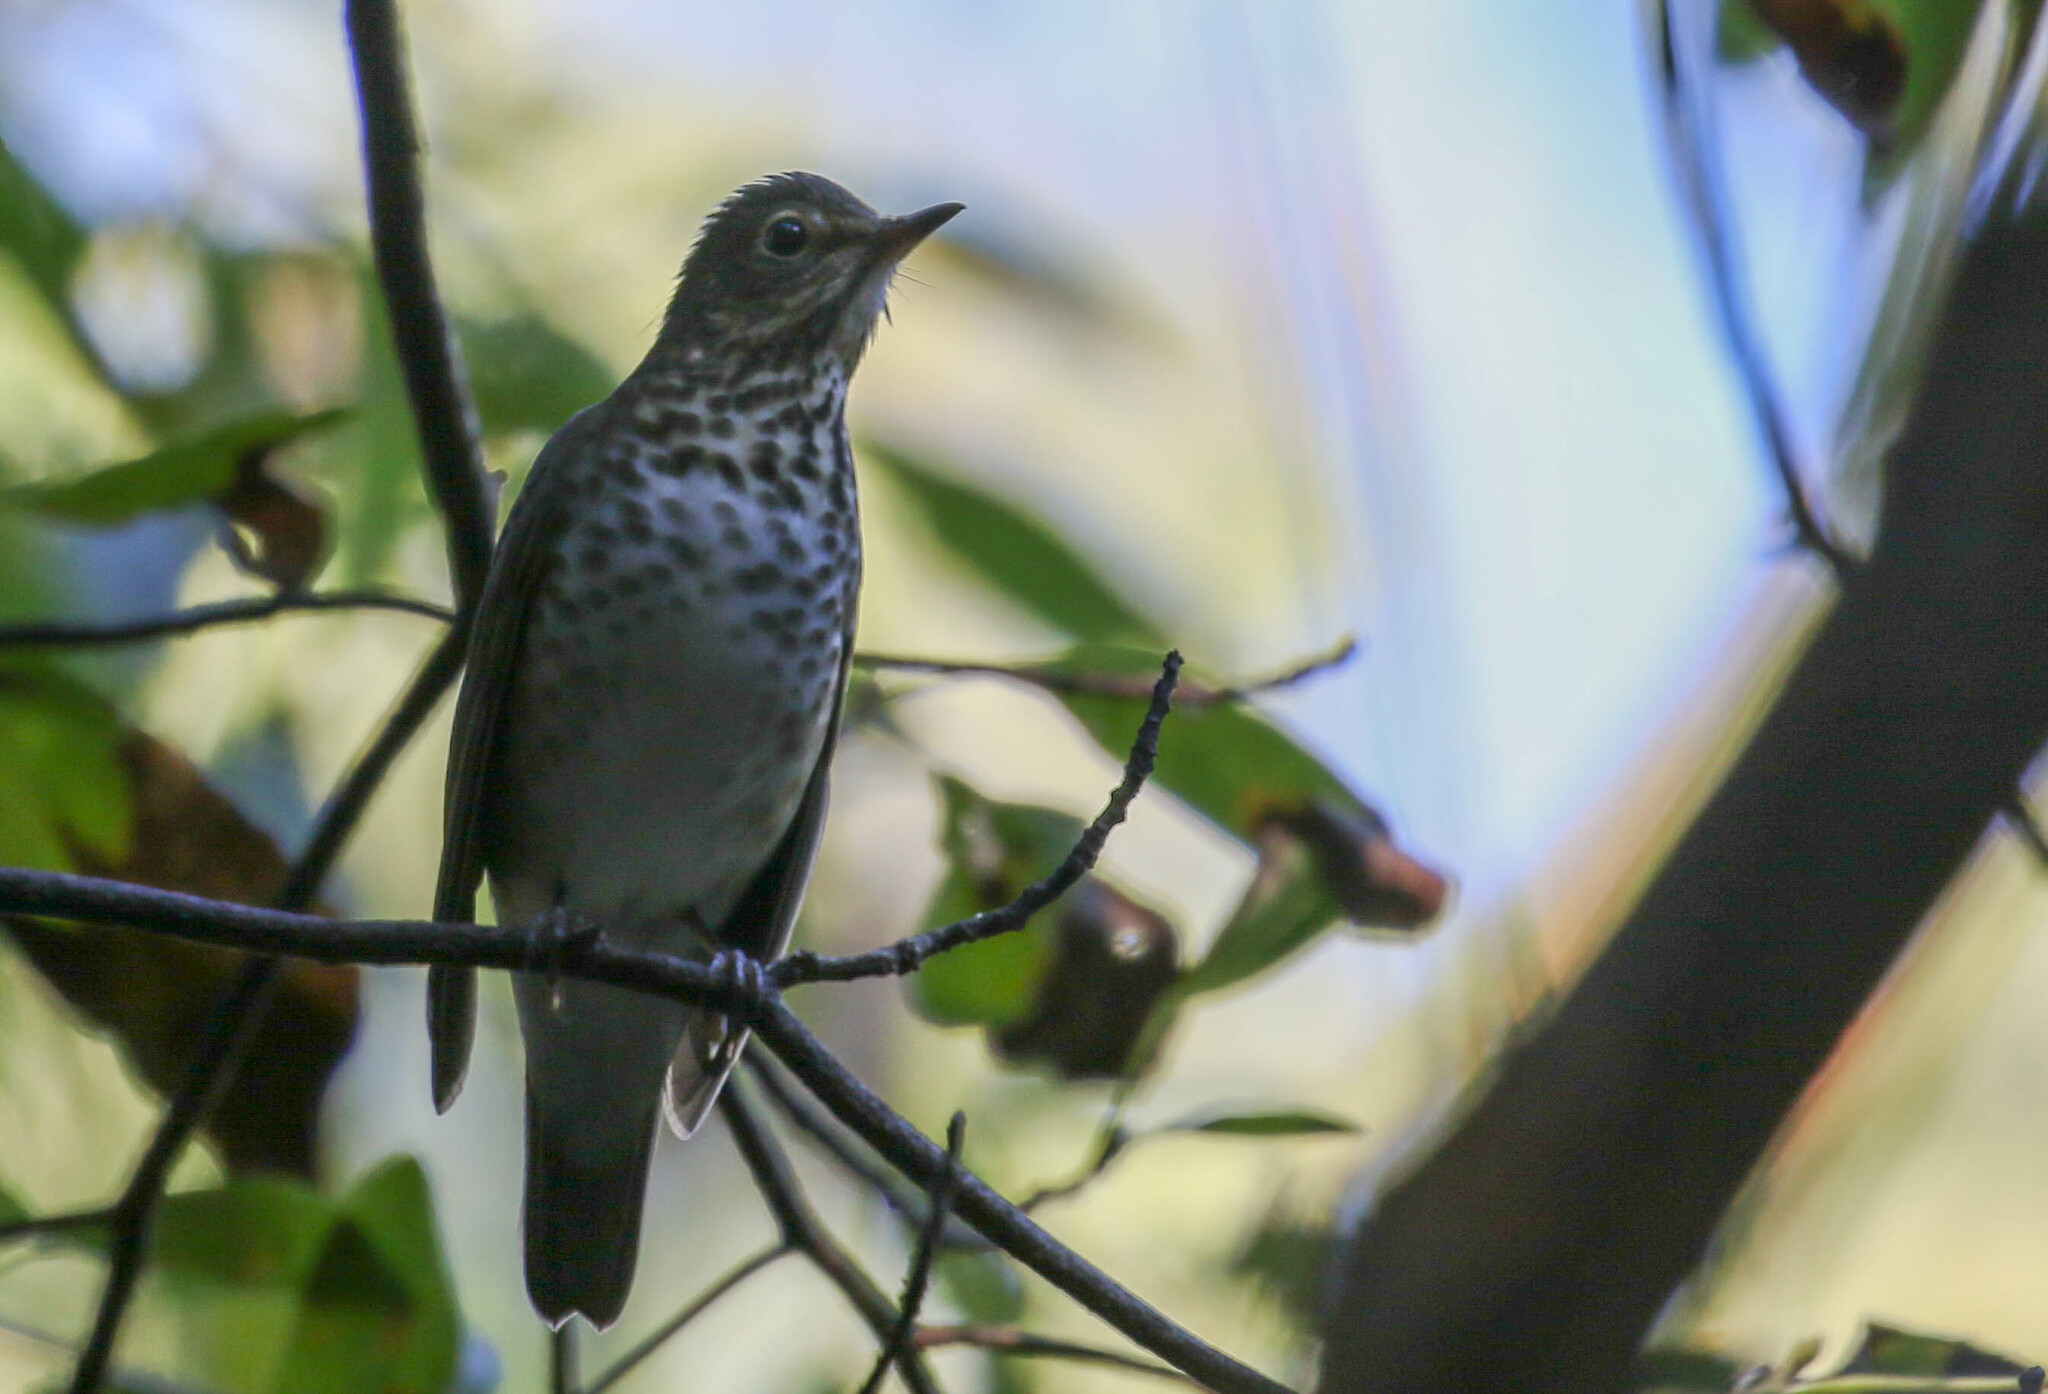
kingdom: Animalia
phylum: Chordata
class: Aves
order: Passeriformes
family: Turdidae
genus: Catharus
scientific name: Catharus ustulatus
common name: Swainson's thrush
